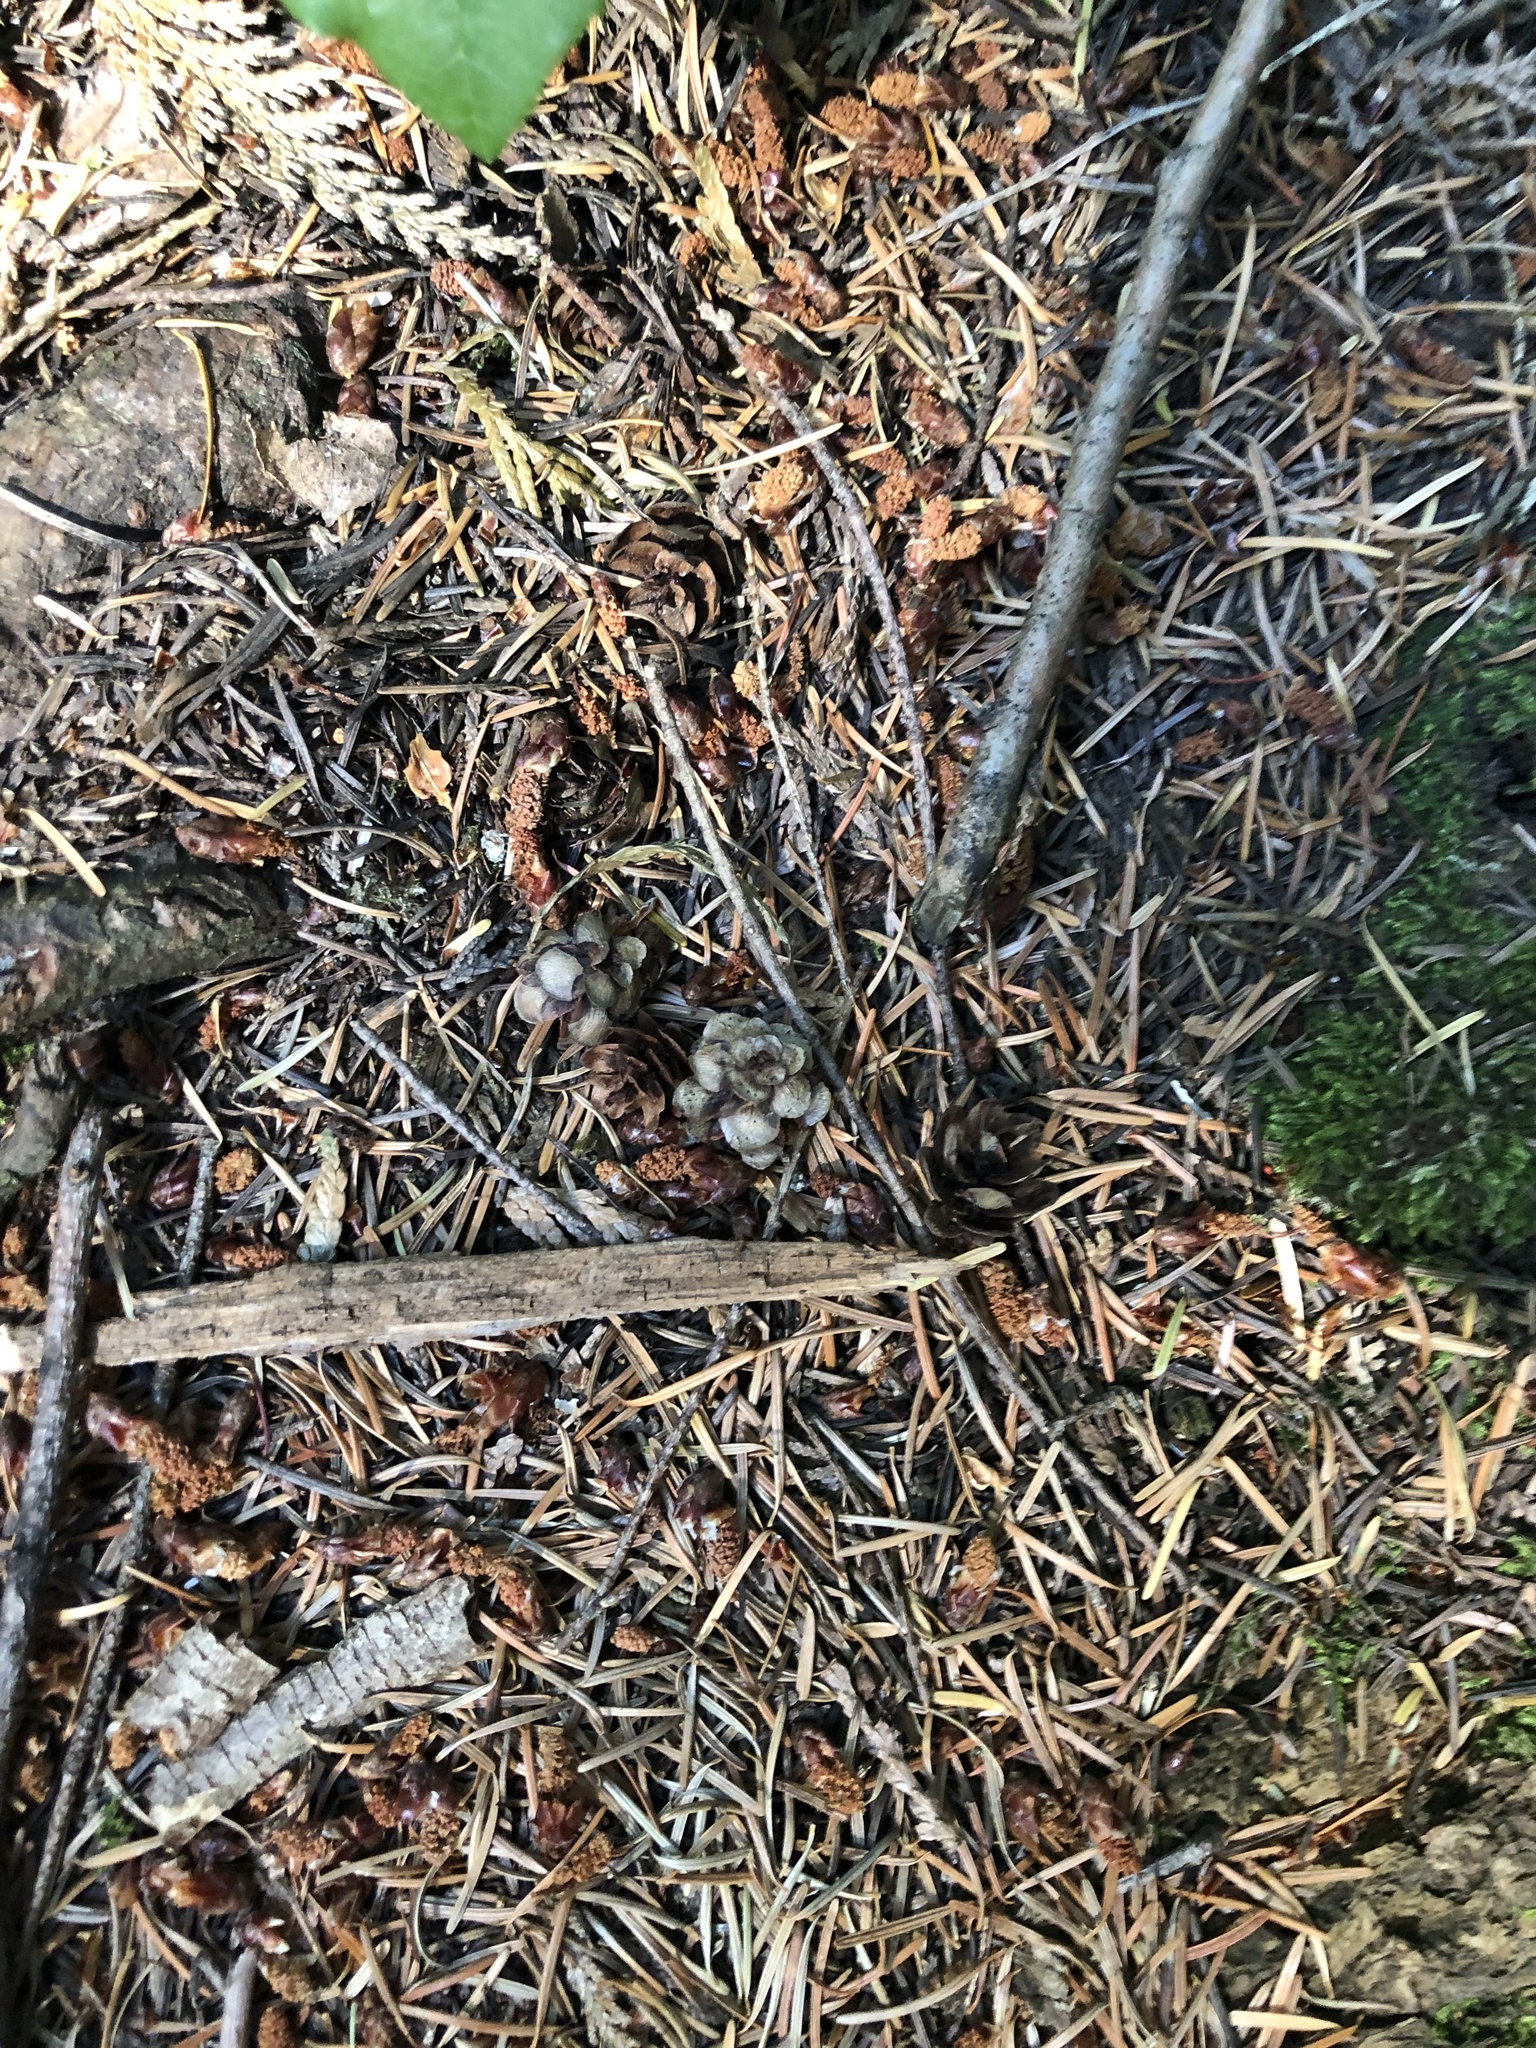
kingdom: Plantae
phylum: Tracheophyta
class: Pinopsida
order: Pinales
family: Pinaceae
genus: Tsuga
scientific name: Tsuga heterophylla
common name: Western hemlock
